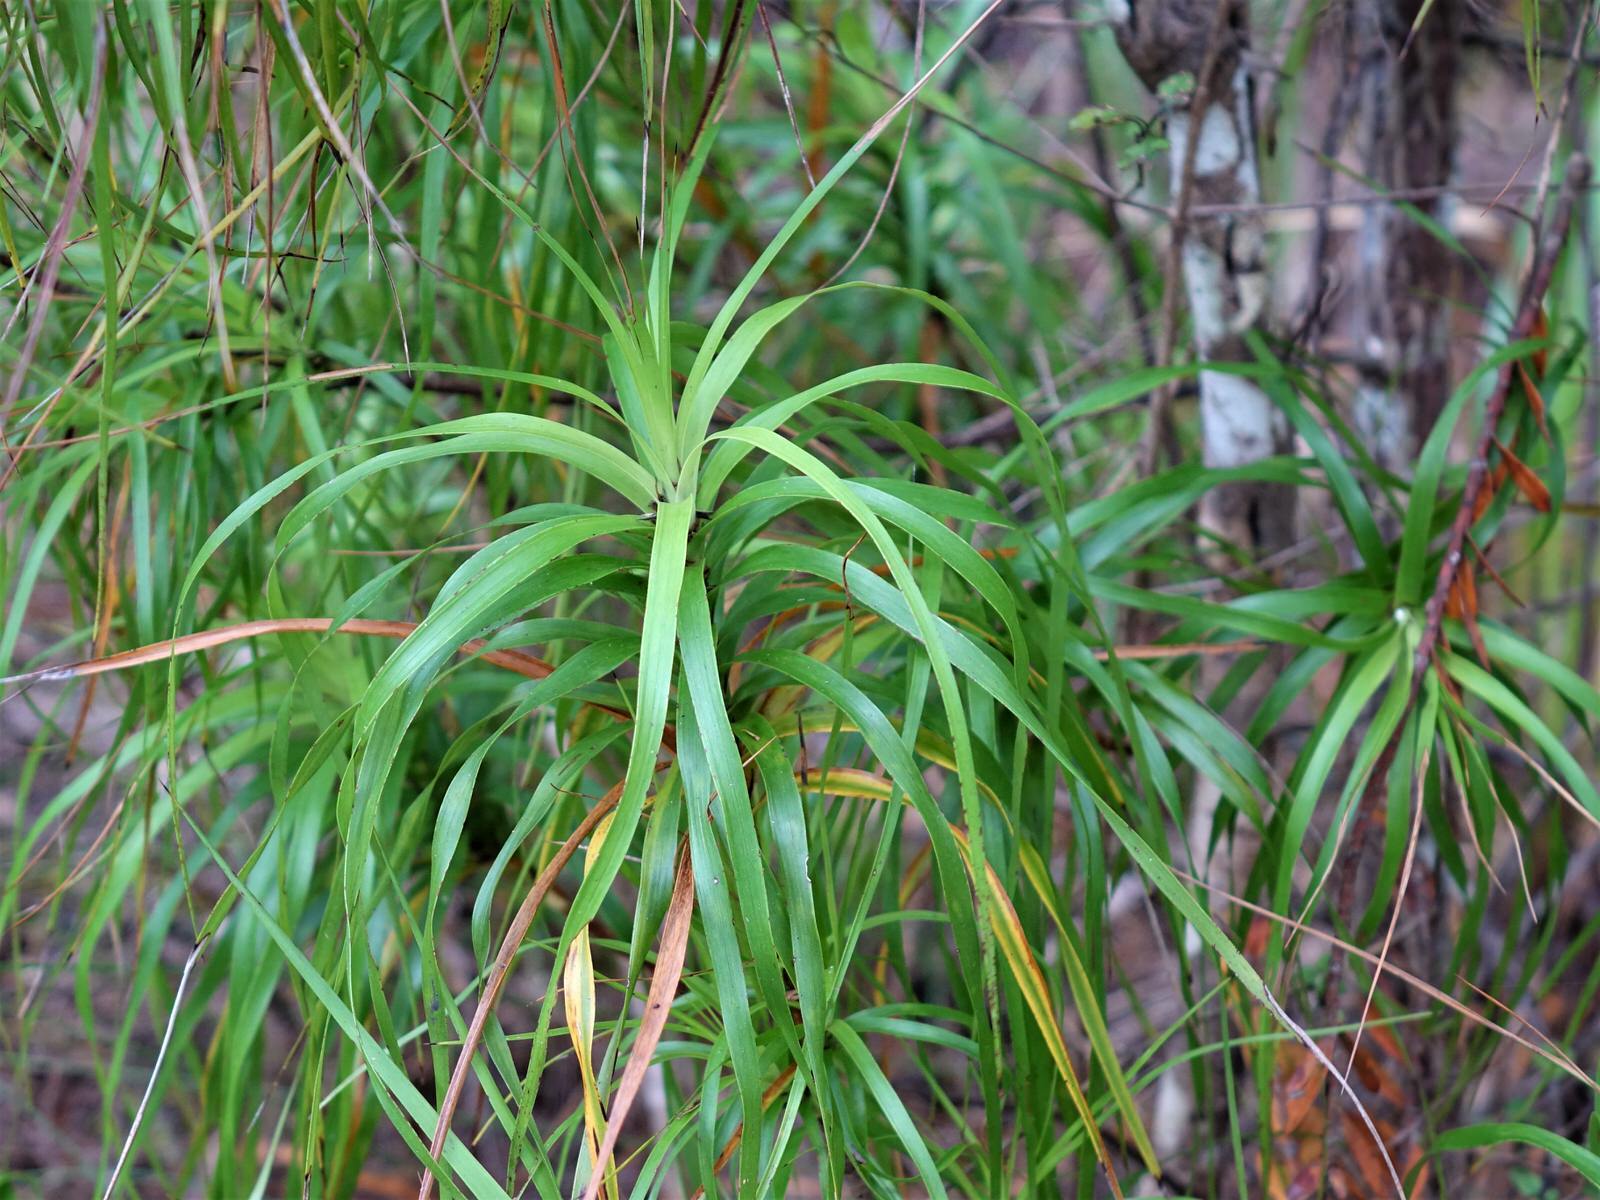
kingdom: Plantae
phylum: Tracheophyta
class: Magnoliopsida
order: Ericales
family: Ericaceae
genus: Dracophyllum
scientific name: Dracophyllum sinclairii
